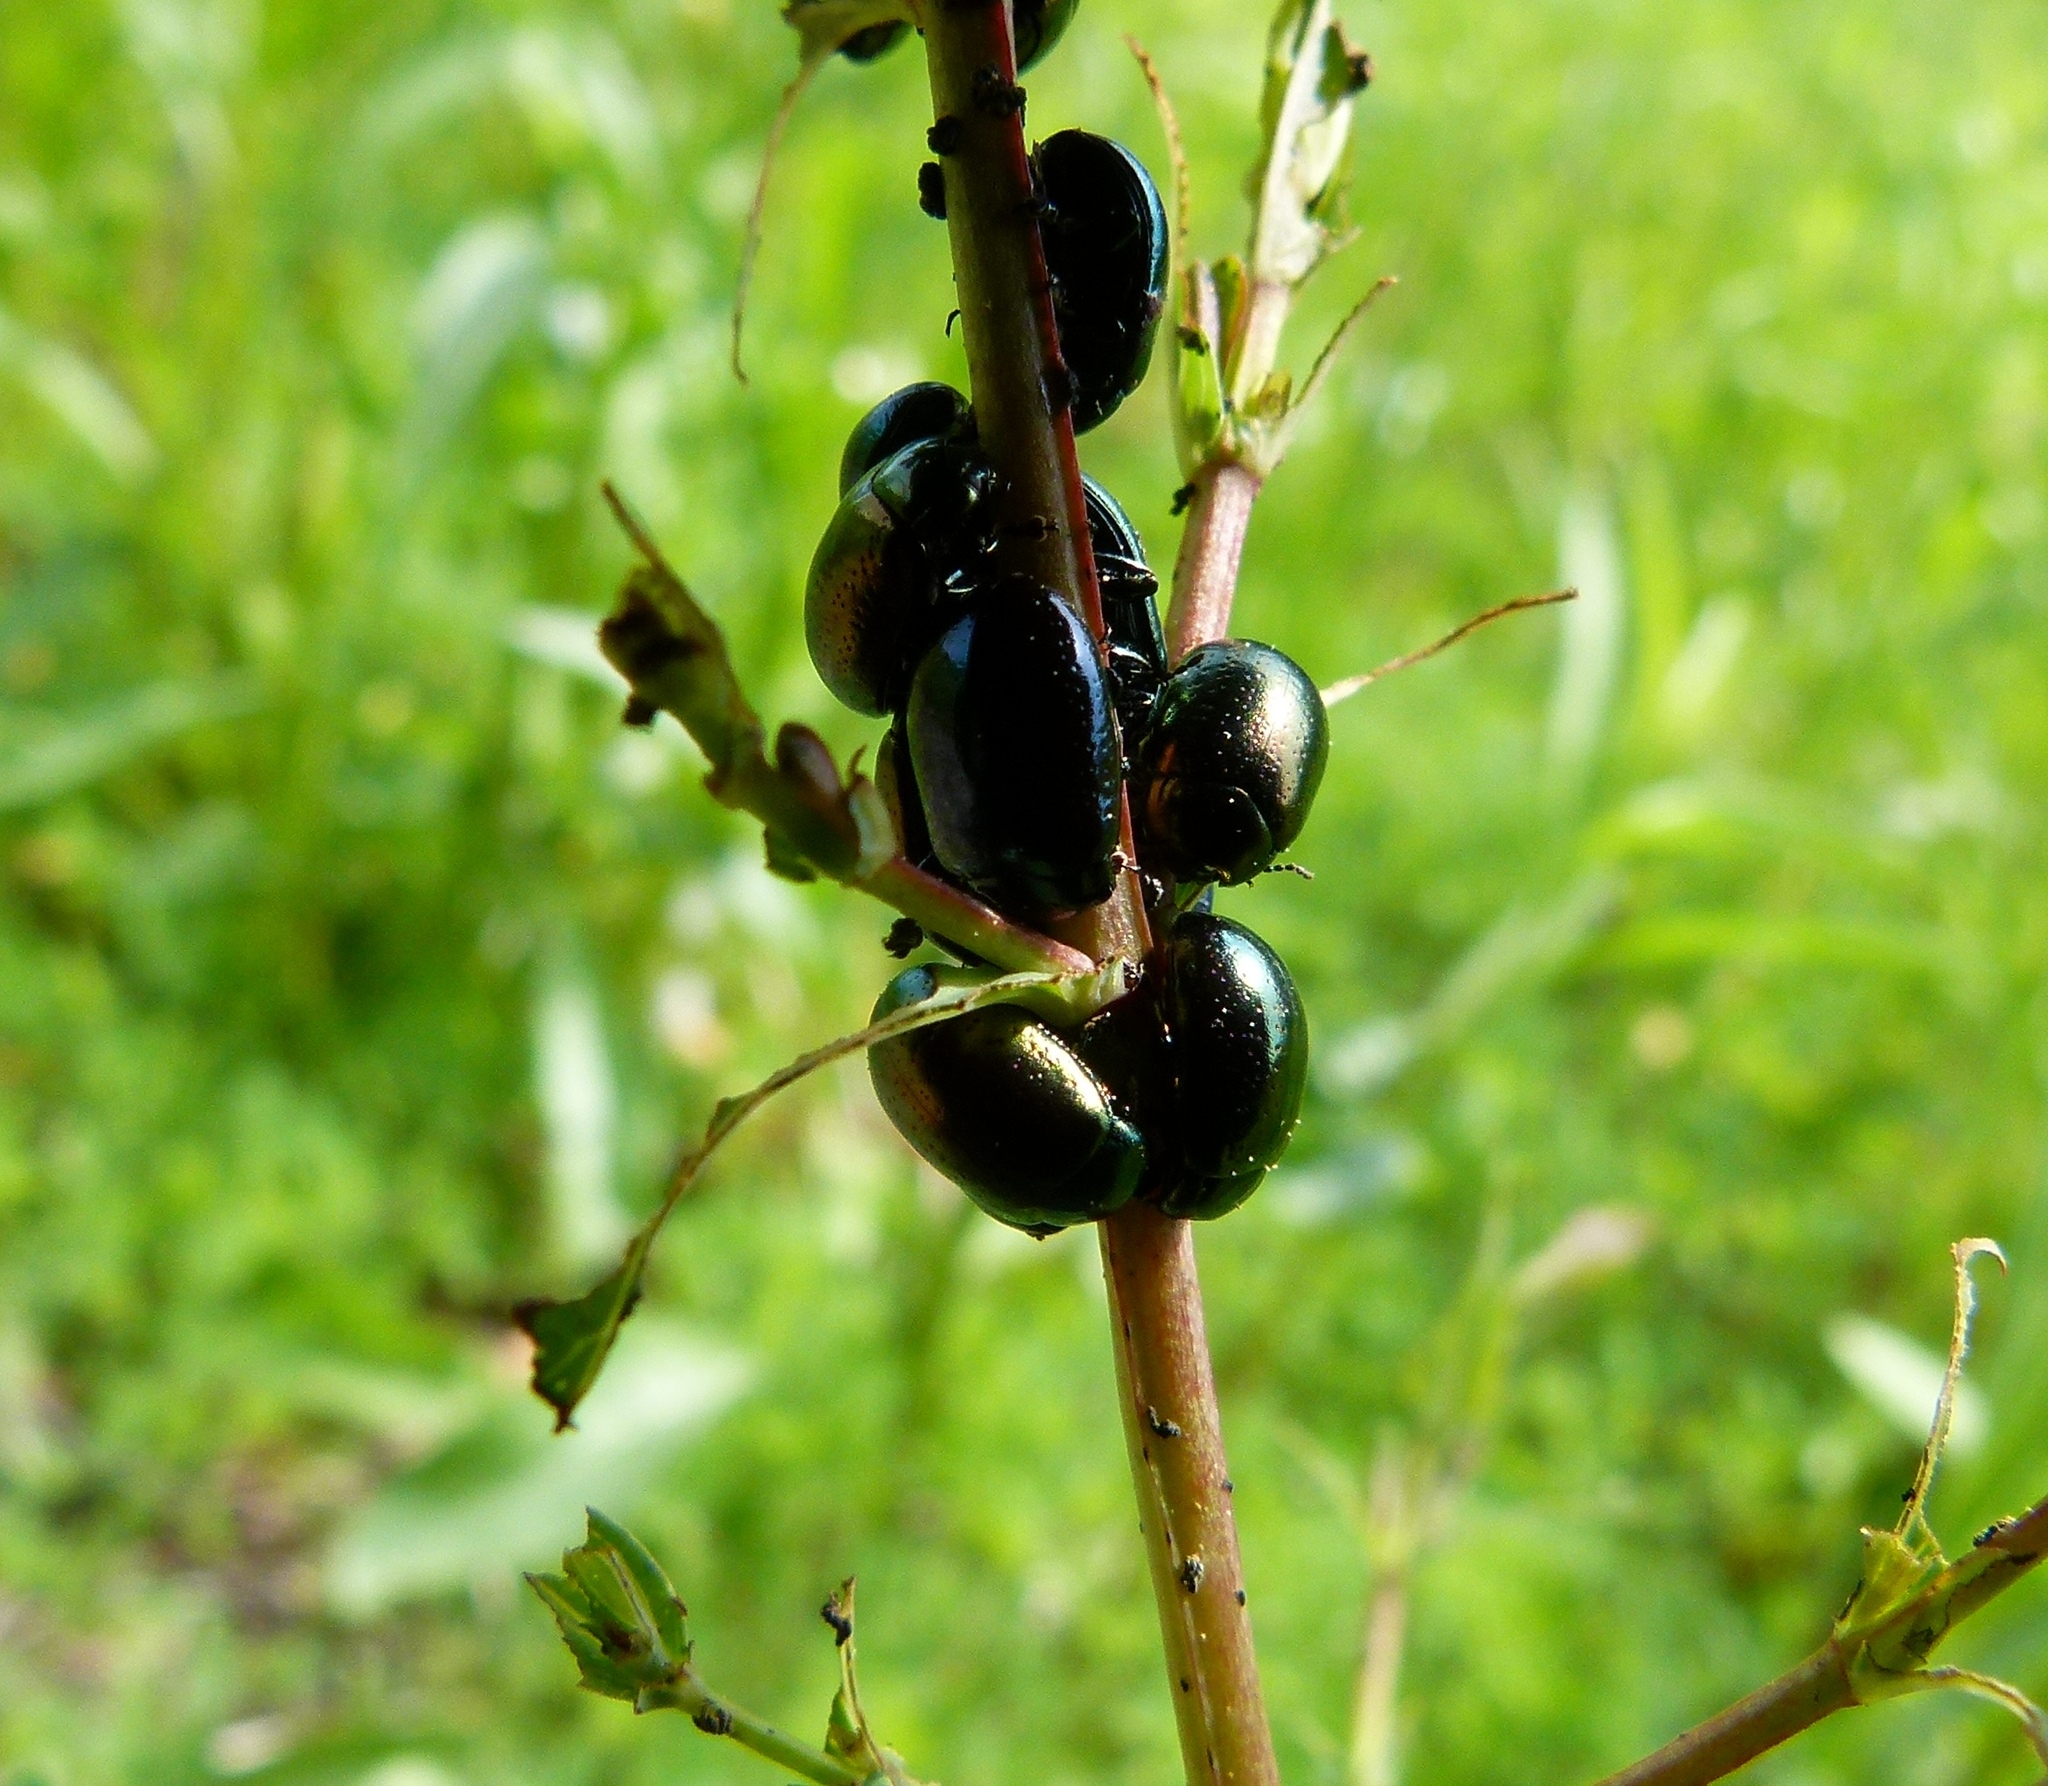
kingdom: Animalia
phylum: Arthropoda
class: Insecta
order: Coleoptera
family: Chrysomelidae
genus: Chrysolina
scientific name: Chrysolina hyperici
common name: St. johnswort beetle
